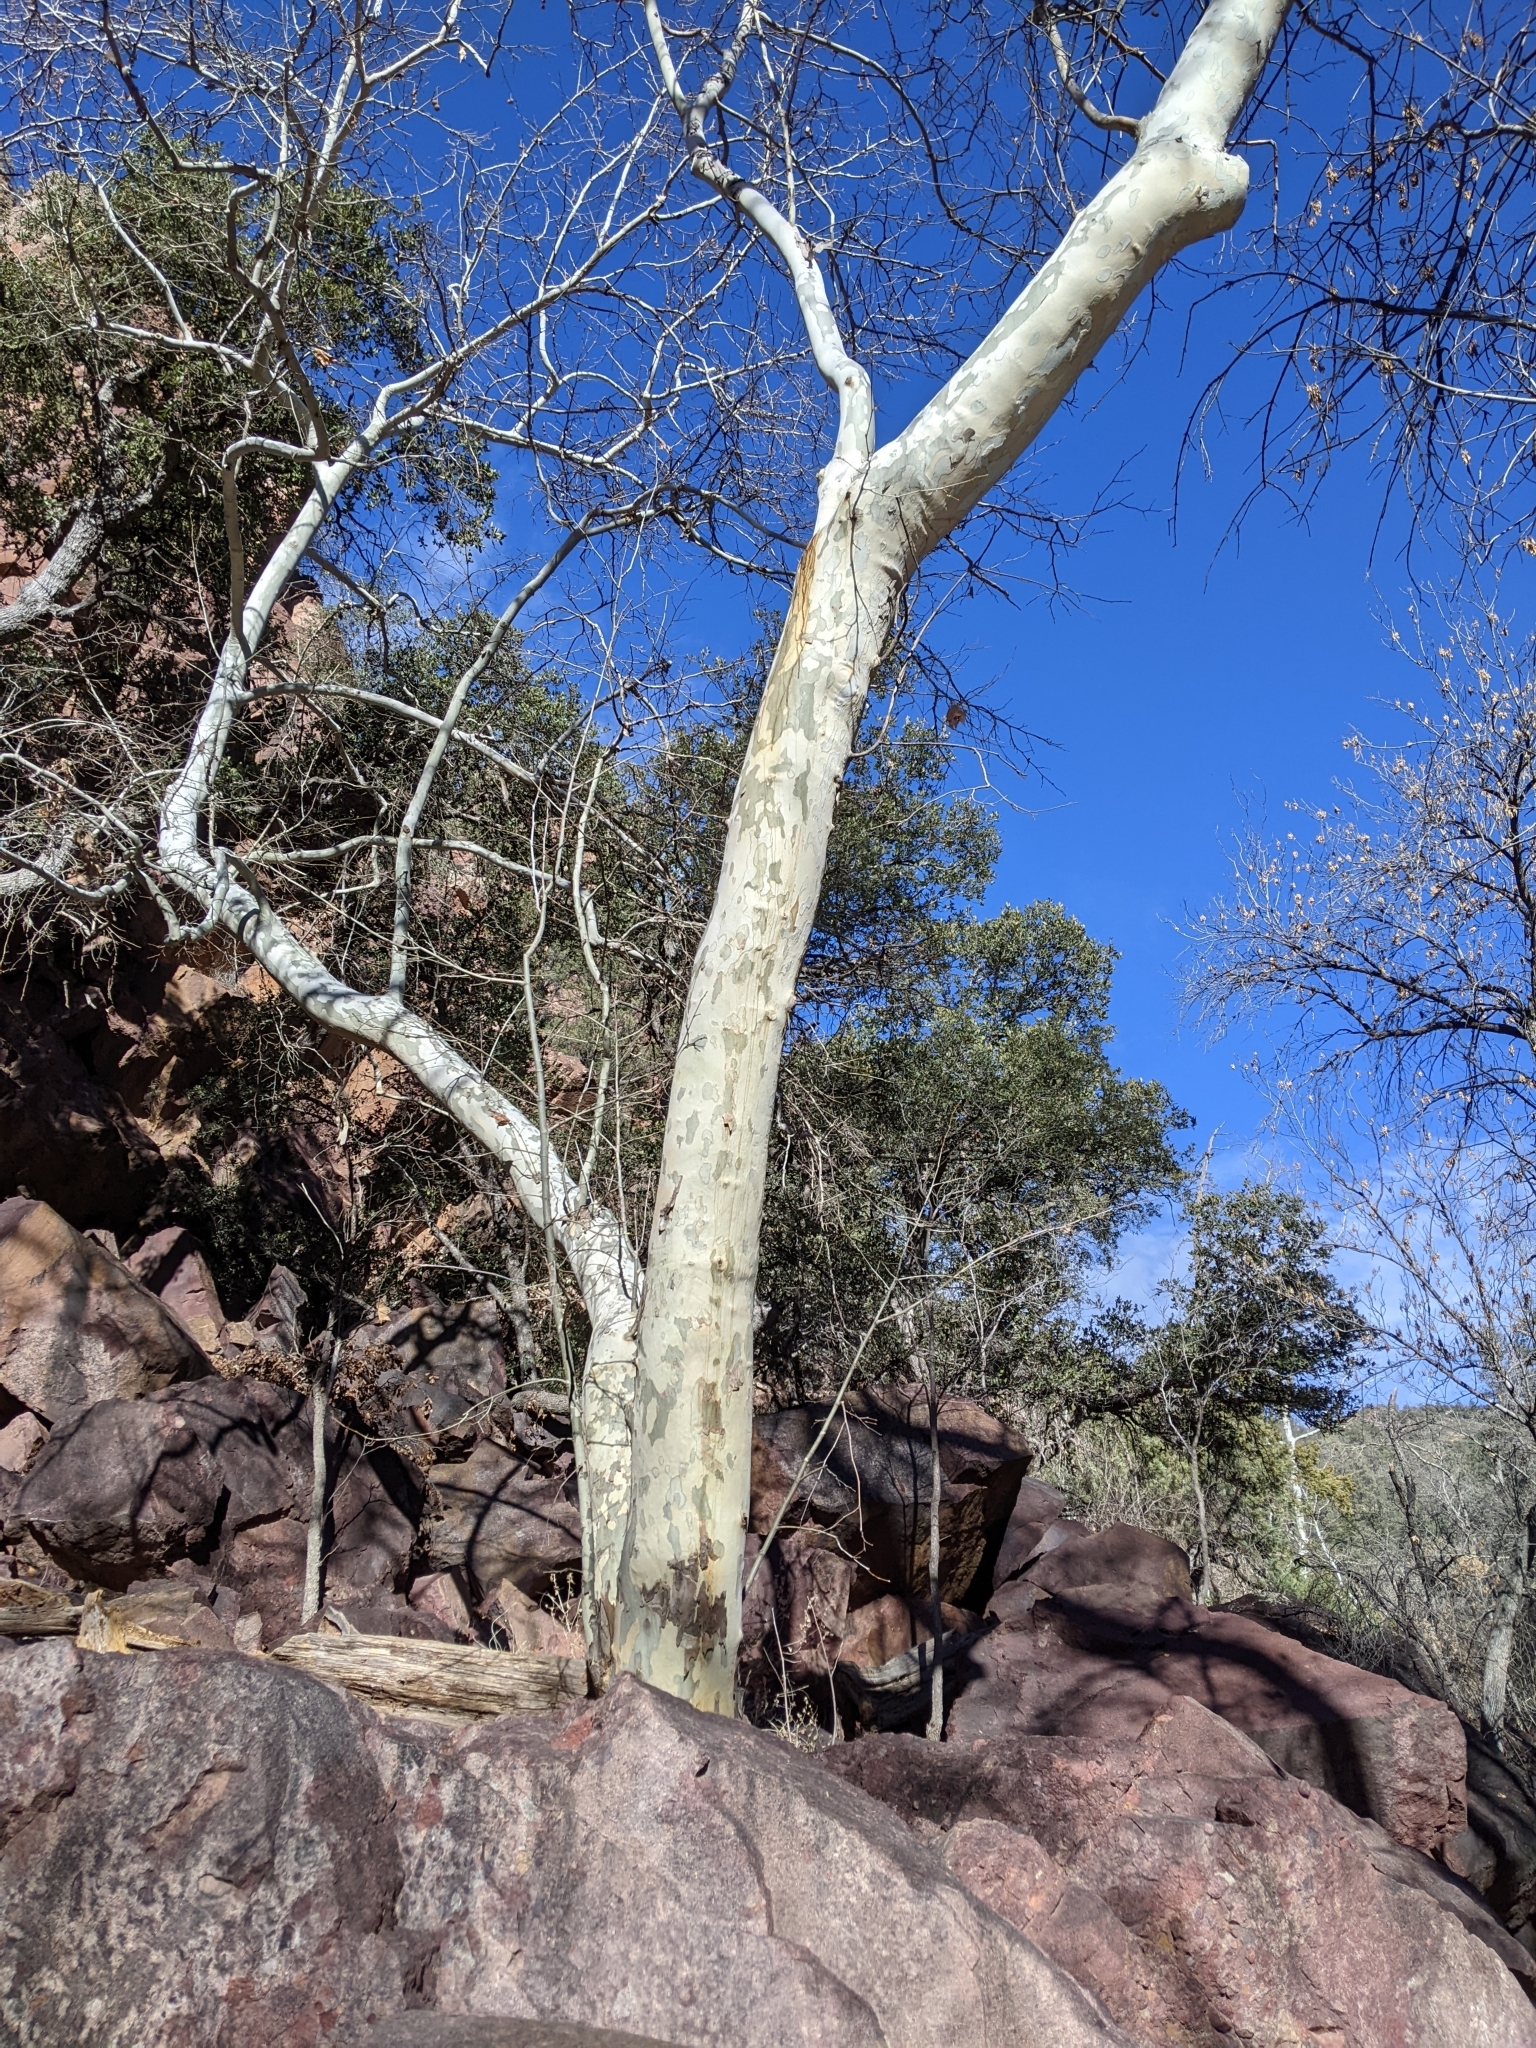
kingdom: Plantae
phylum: Tracheophyta
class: Magnoliopsida
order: Proteales
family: Platanaceae
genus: Platanus
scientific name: Platanus wrightii
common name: Arizona sycamore
